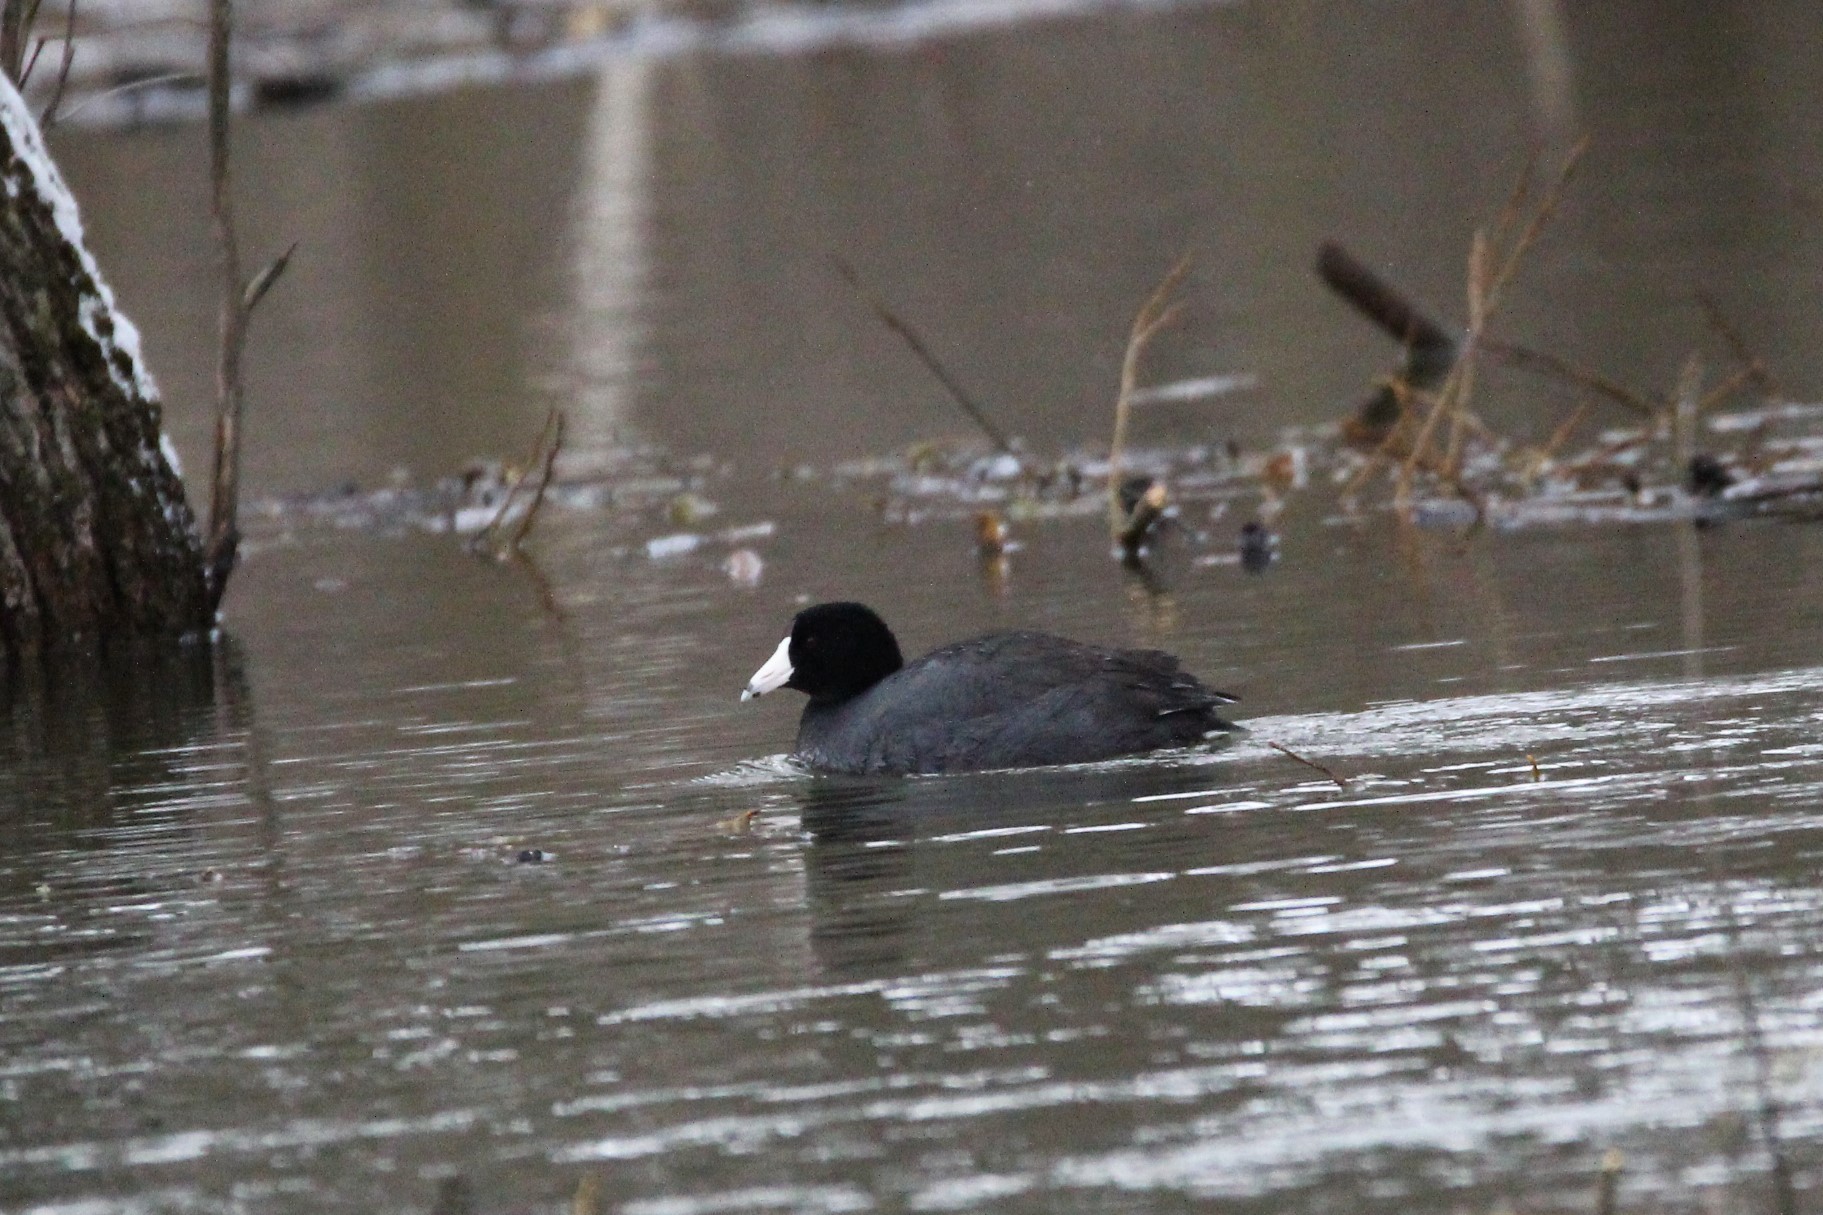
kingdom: Animalia
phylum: Chordata
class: Aves
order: Gruiformes
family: Rallidae
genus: Fulica
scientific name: Fulica americana
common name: American coot
